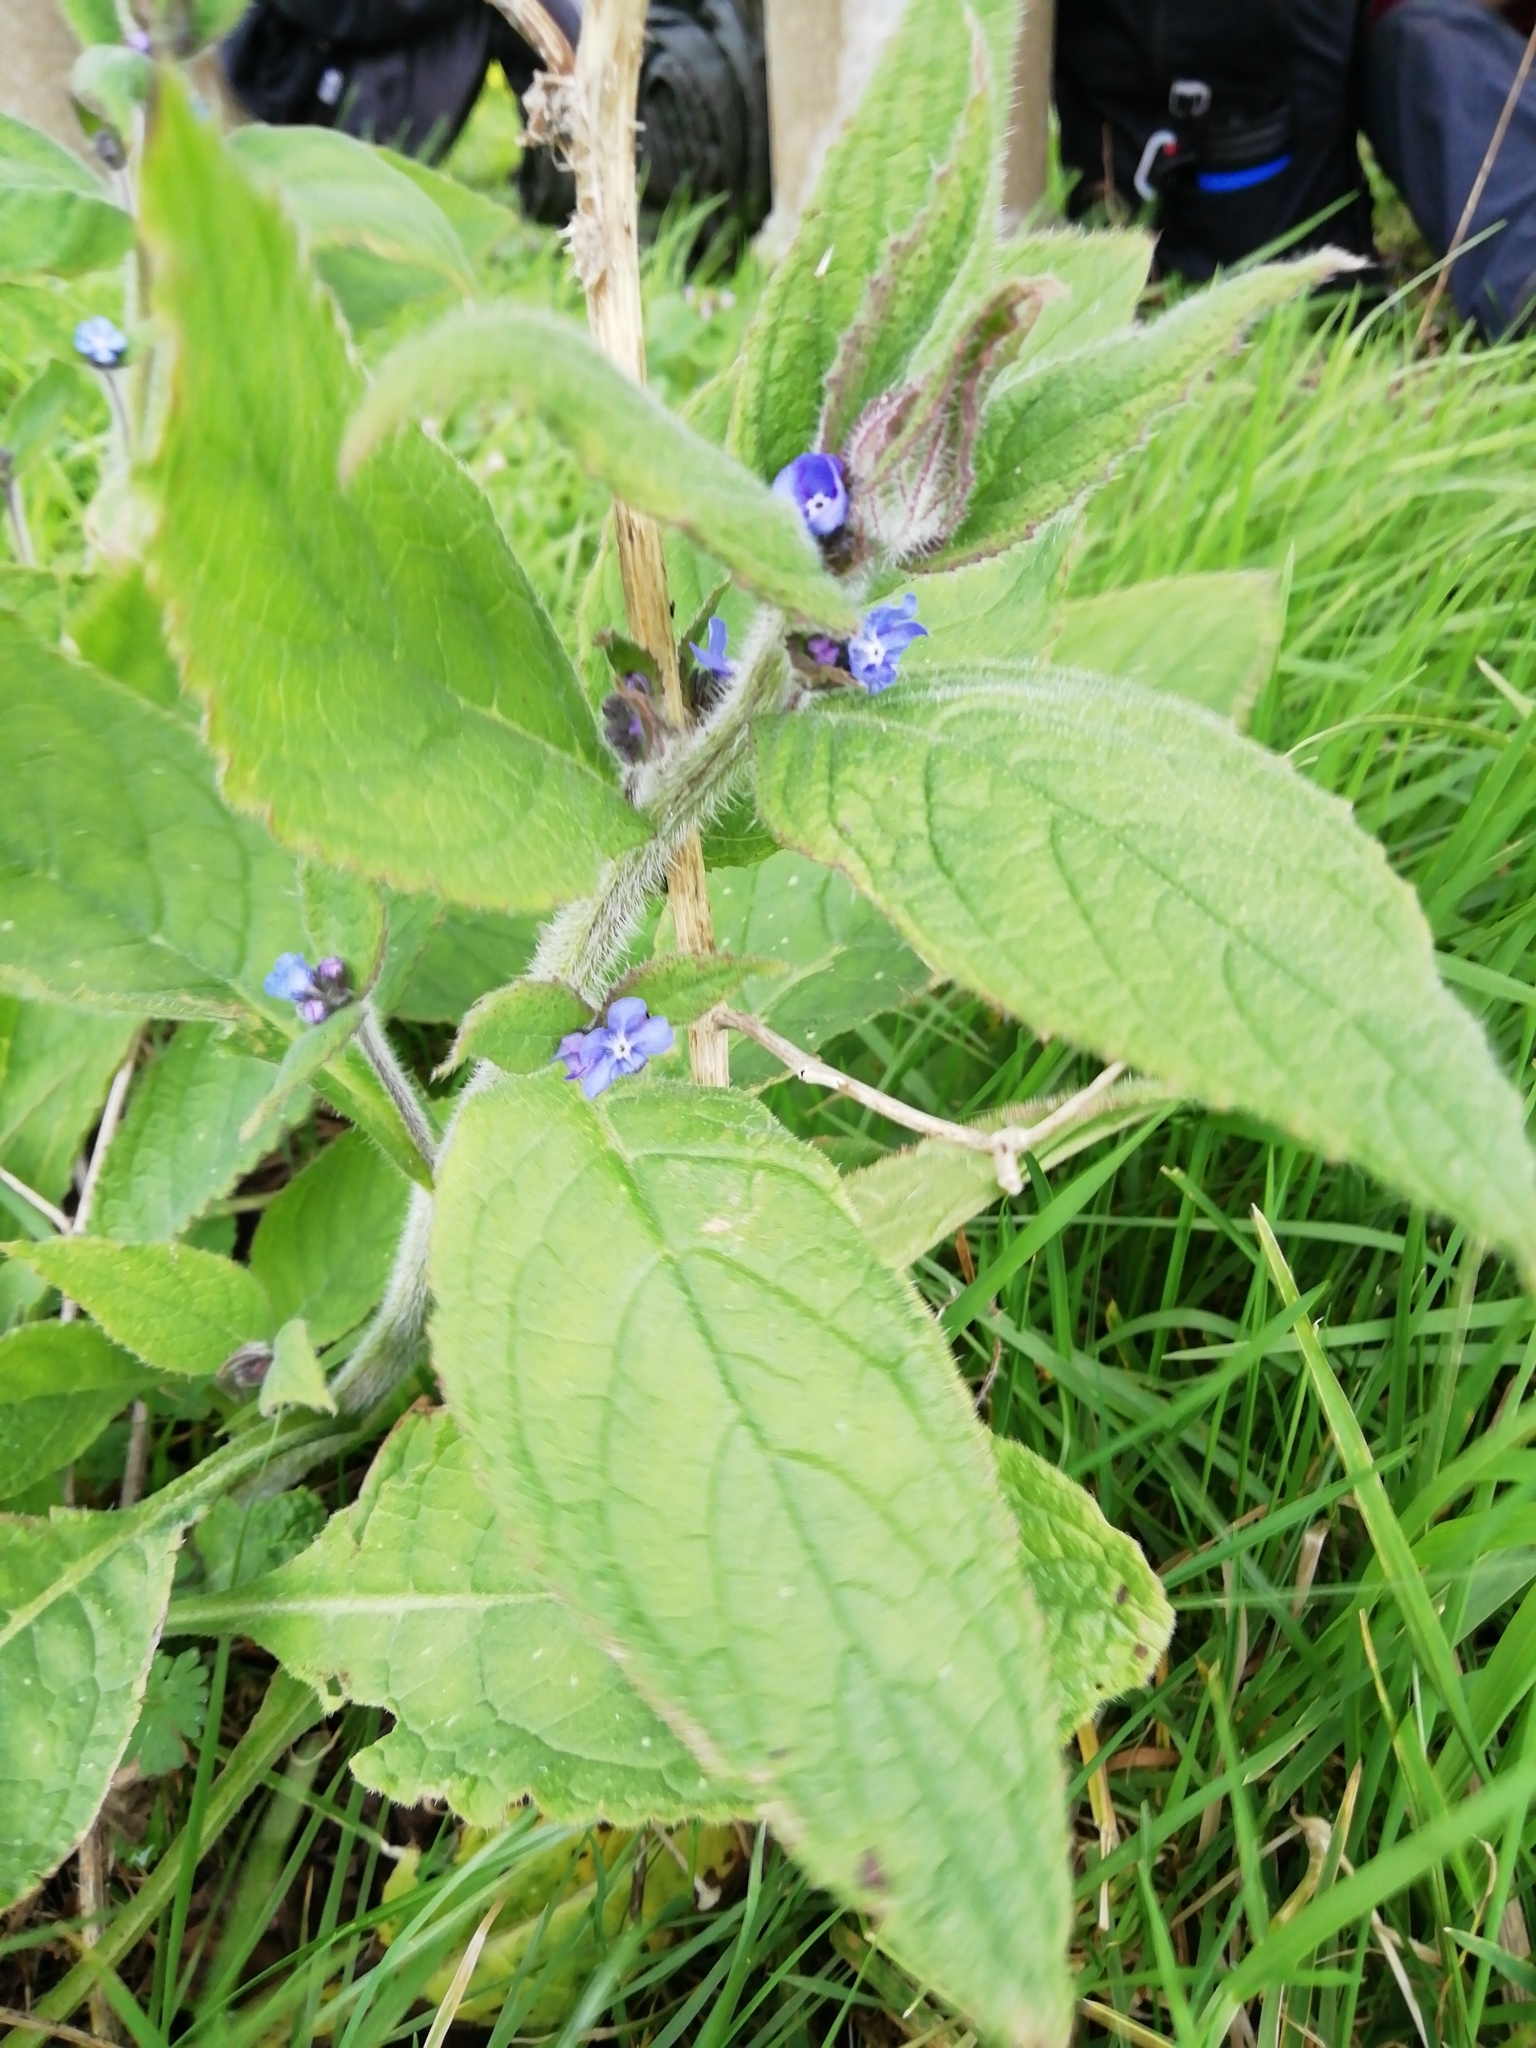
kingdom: Plantae
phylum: Tracheophyta
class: Magnoliopsida
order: Boraginales
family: Boraginaceae
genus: Pentaglottis
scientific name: Pentaglottis sempervirens
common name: Green alkanet
